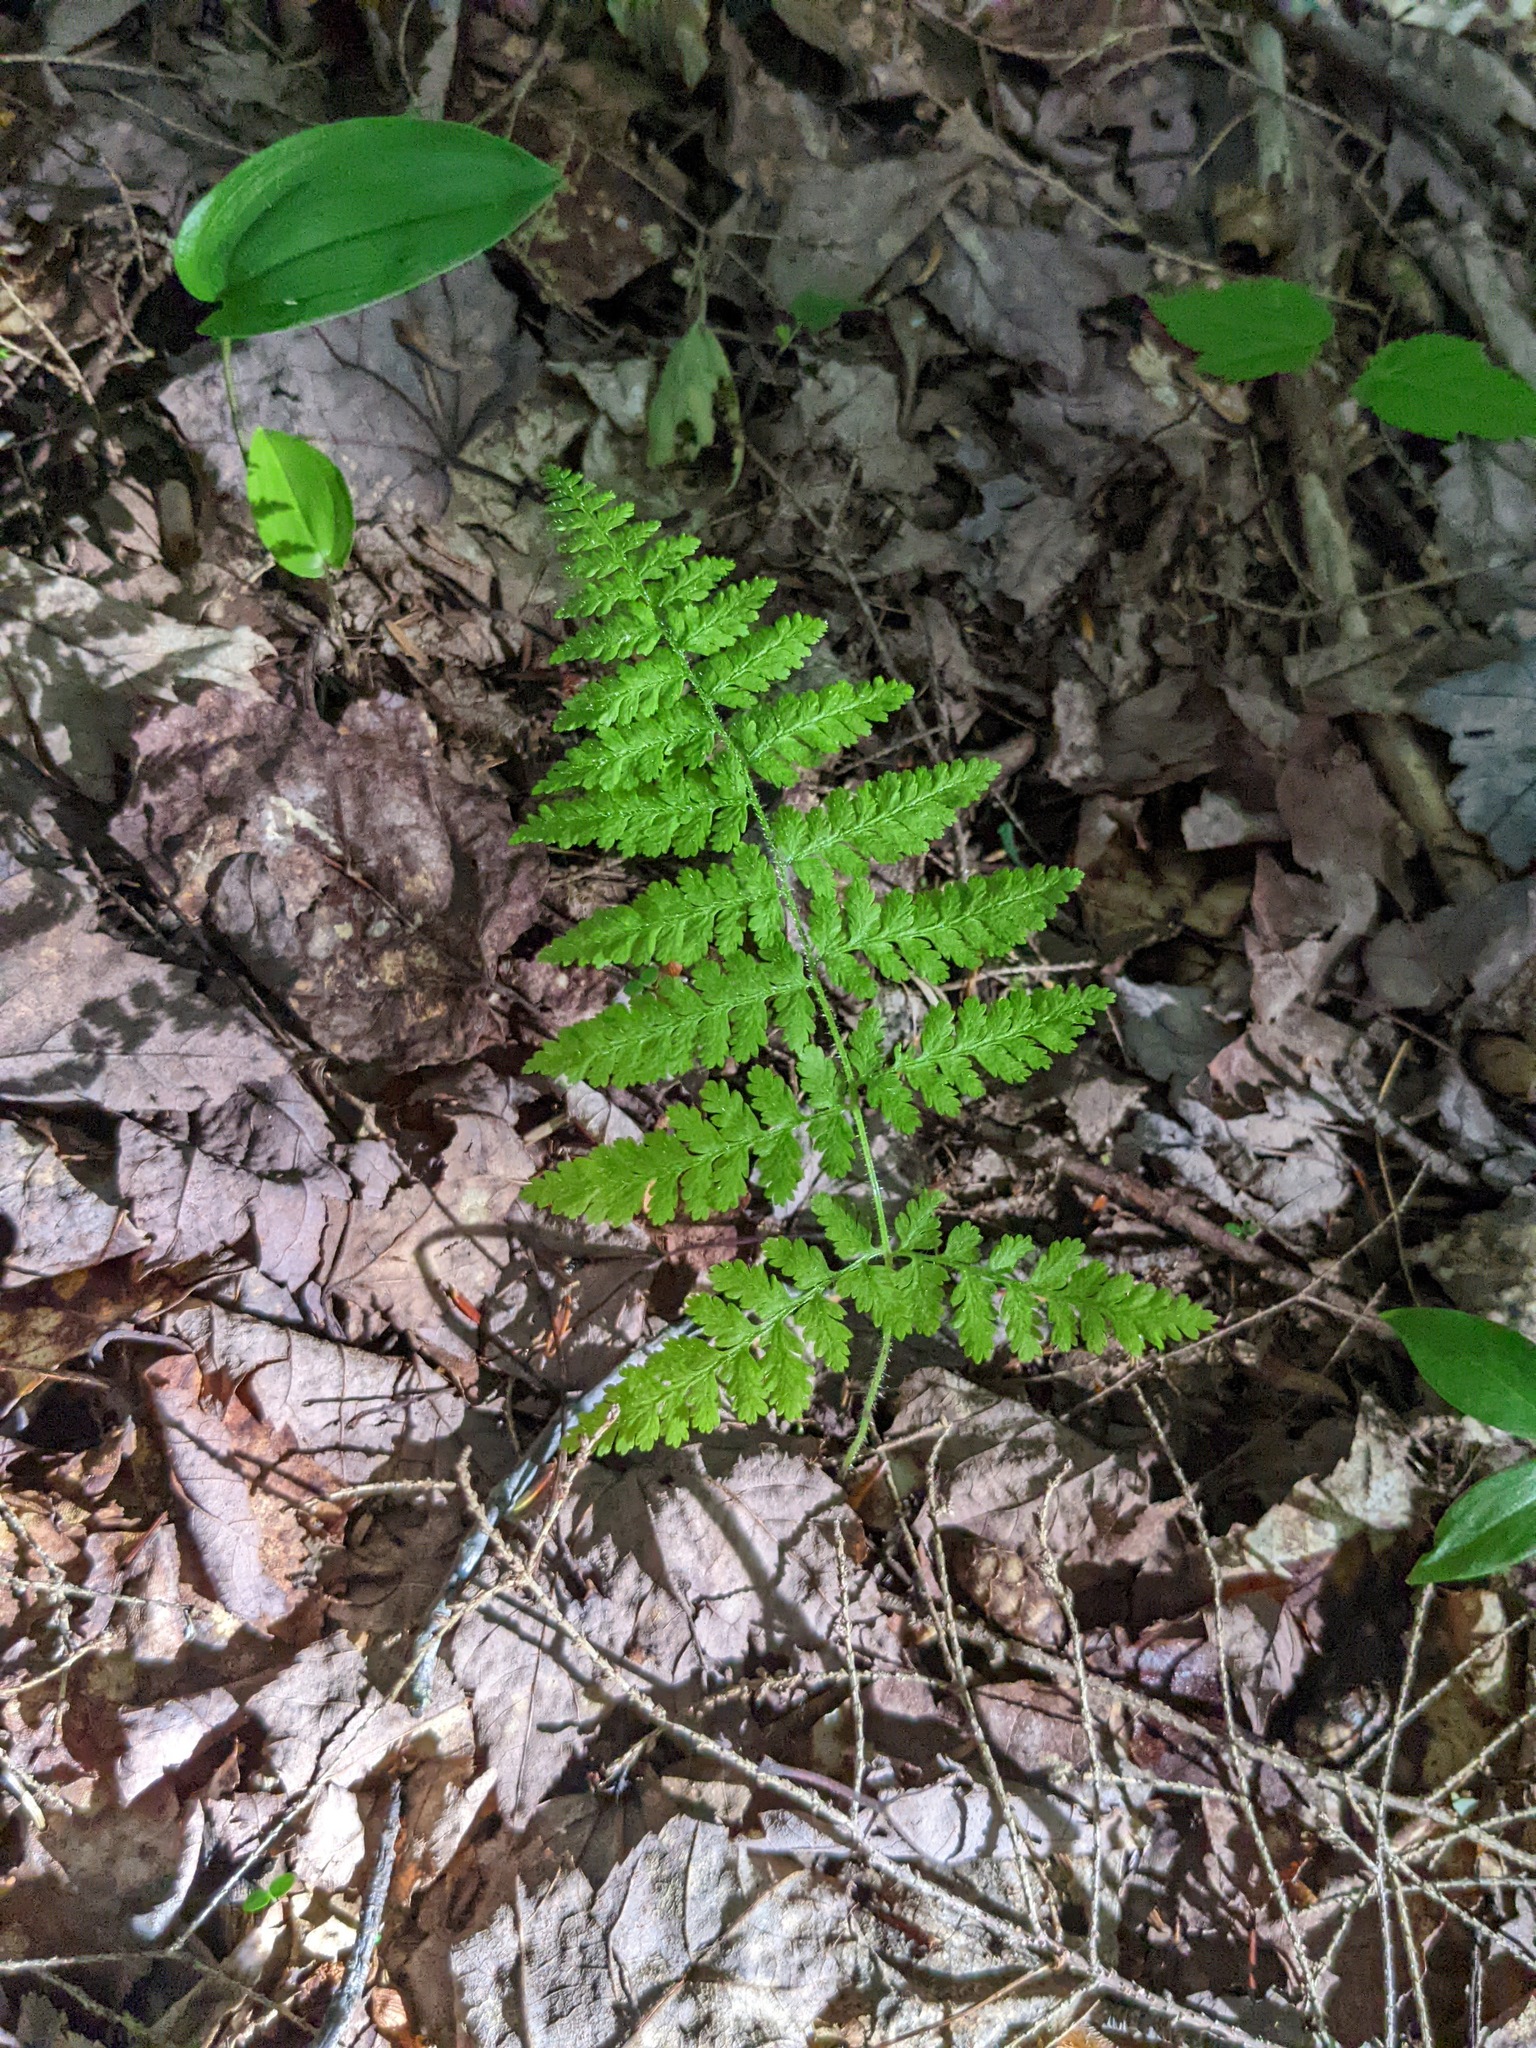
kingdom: Plantae
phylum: Tracheophyta
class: Polypodiopsida
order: Polypodiales
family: Dennstaedtiaceae
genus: Sitobolium
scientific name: Sitobolium punctilobum
